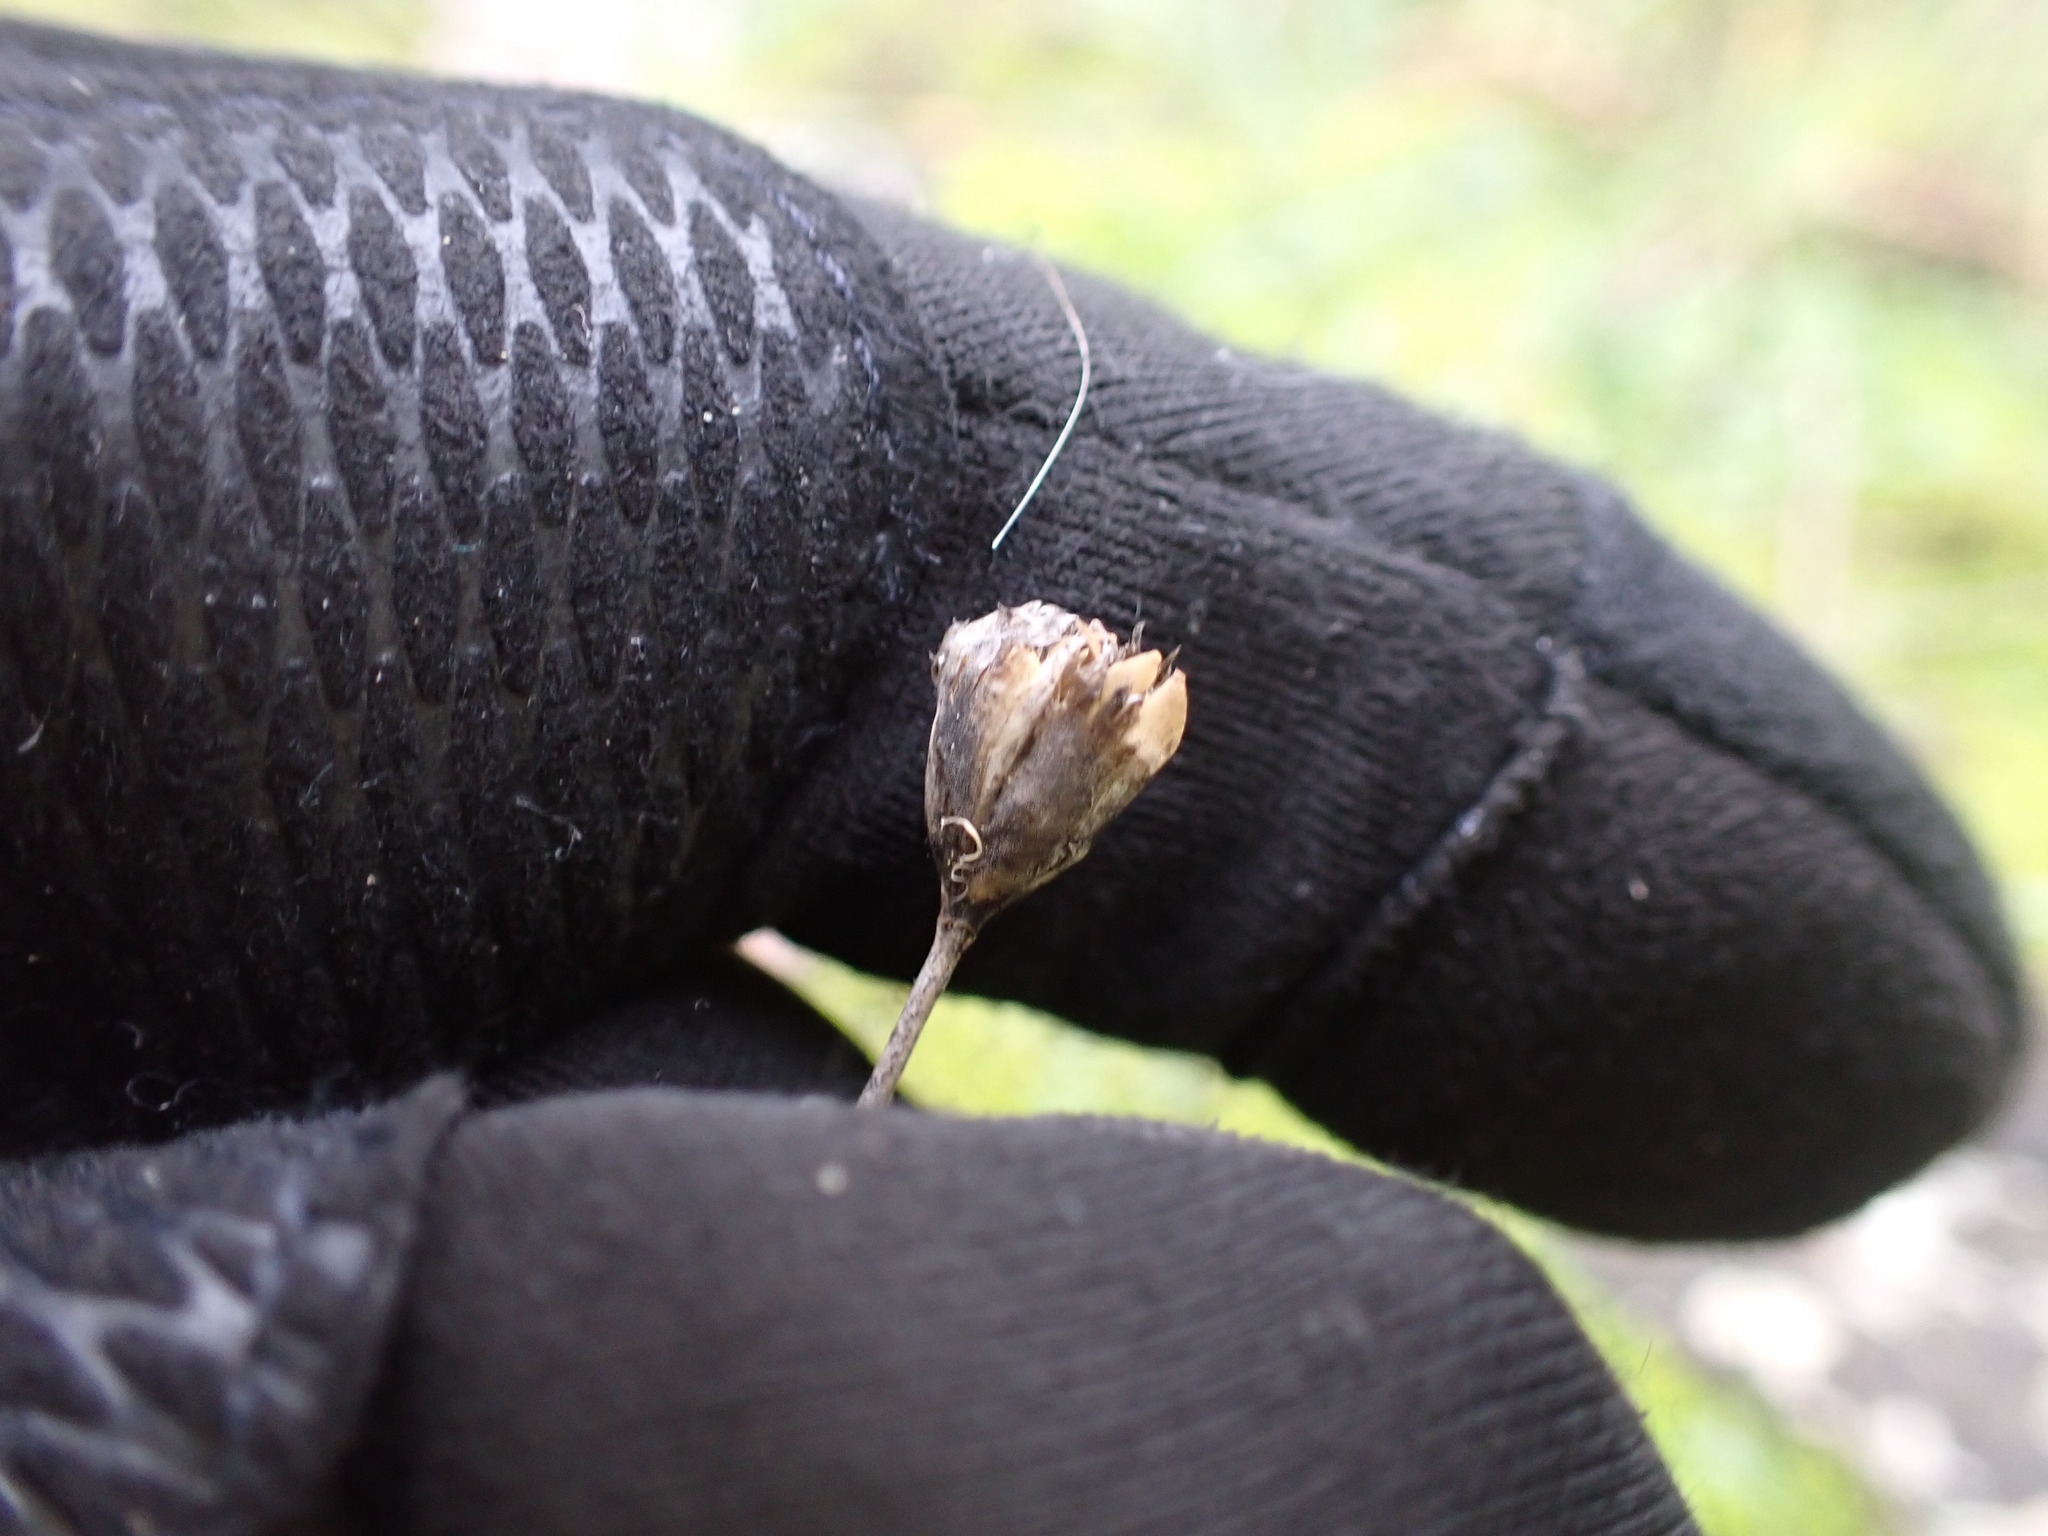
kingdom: Plantae
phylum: Tracheophyta
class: Magnoliopsida
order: Caryophyllales
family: Caryophyllaceae
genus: Petrorhagia
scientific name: Petrorhagia prolifera
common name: Proliferous pink
